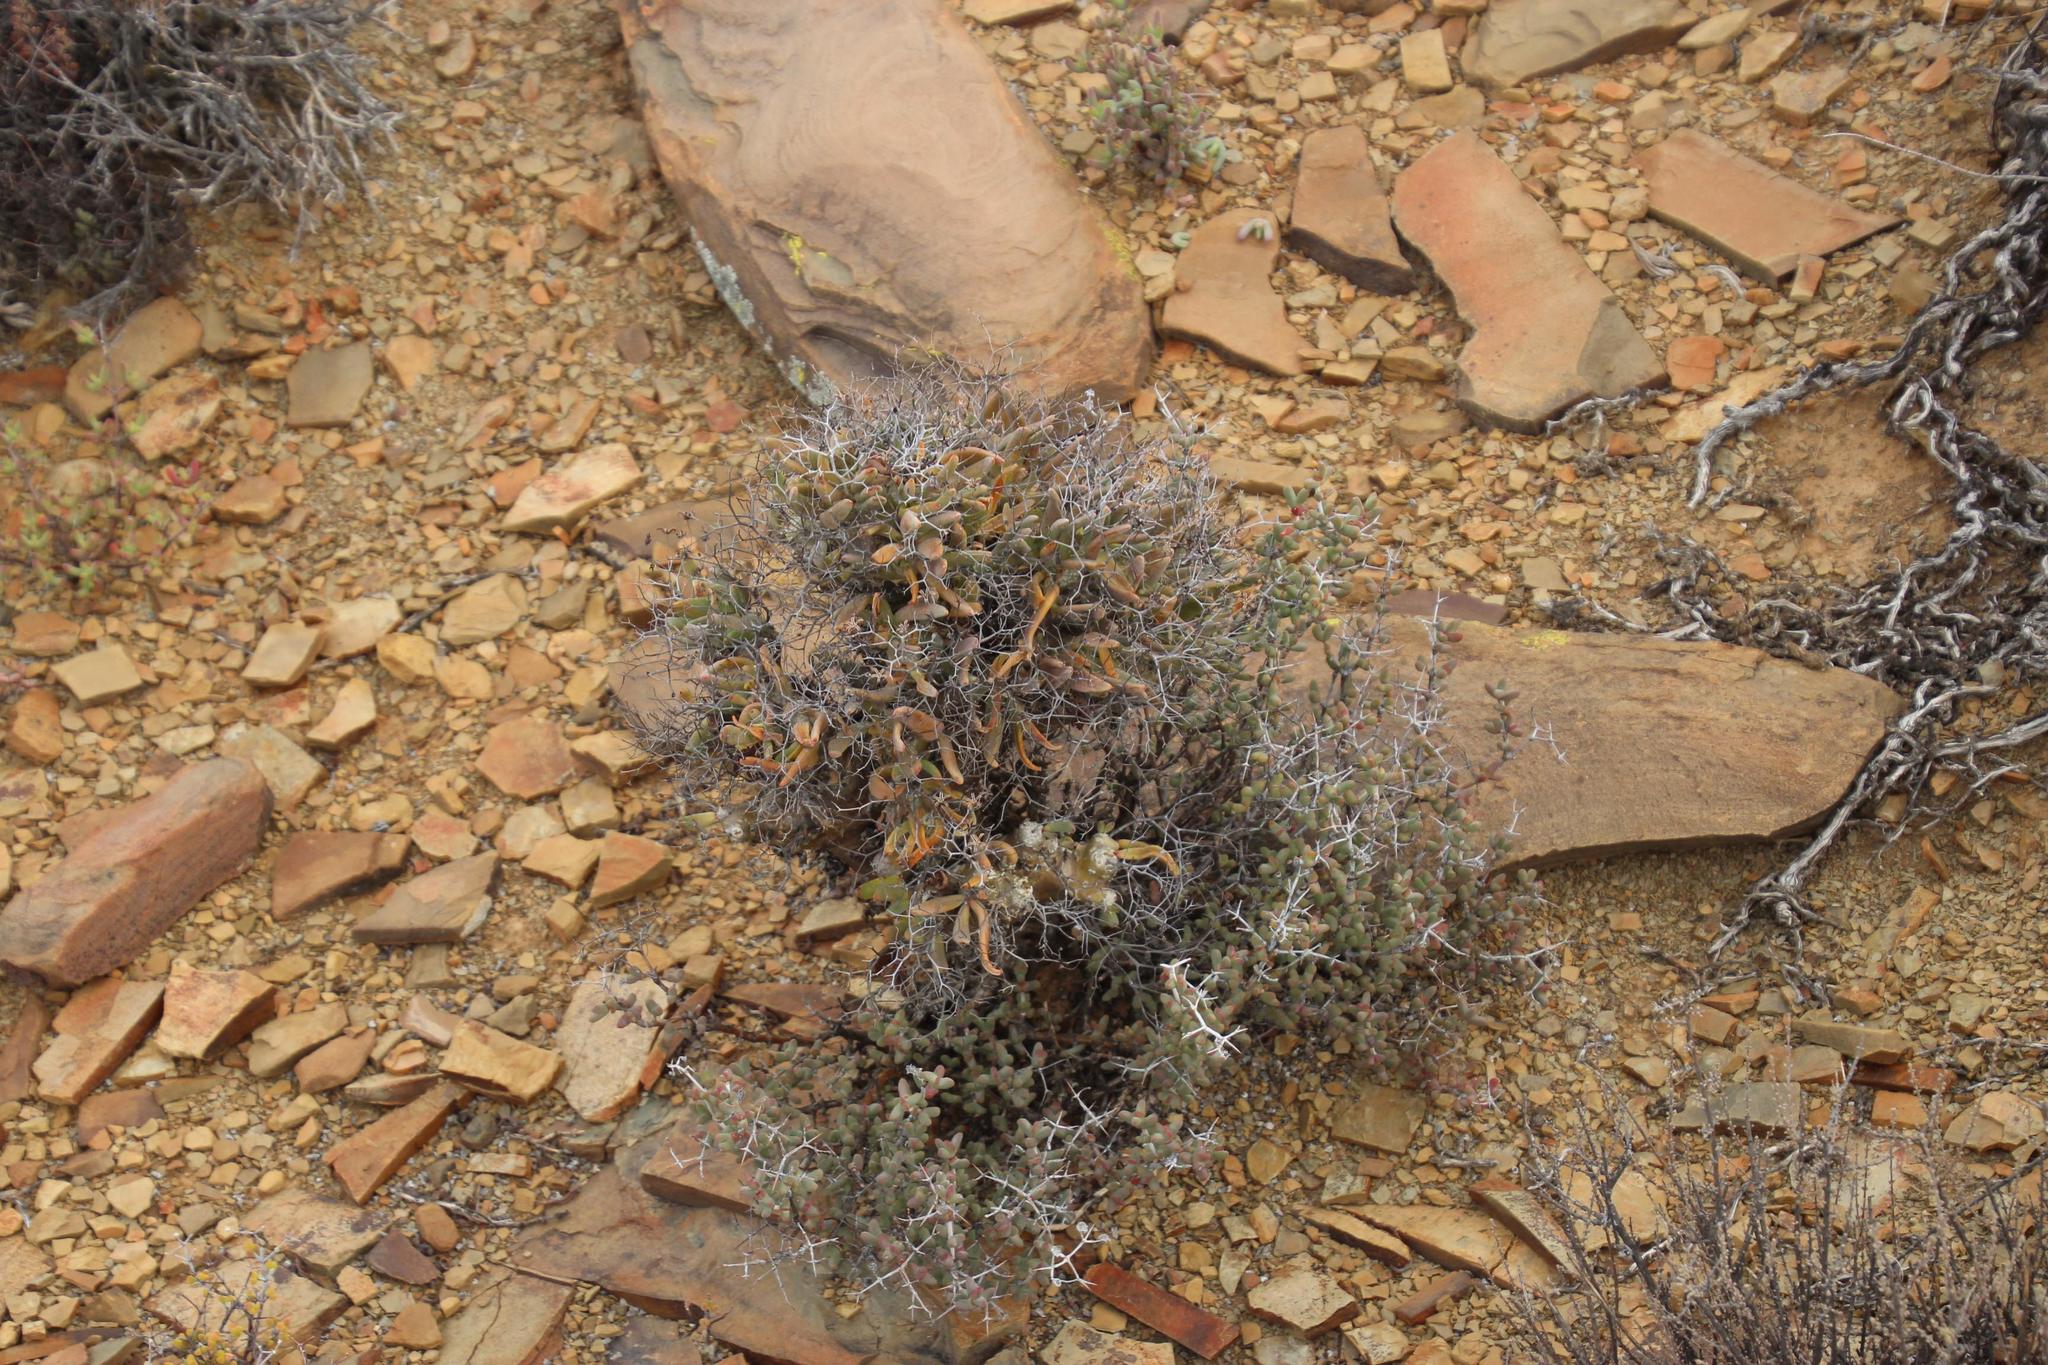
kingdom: Plantae
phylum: Tracheophyta
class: Magnoliopsida
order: Saxifragales
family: Crassulaceae
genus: Tylecodon
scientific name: Tylecodon reticulatus
